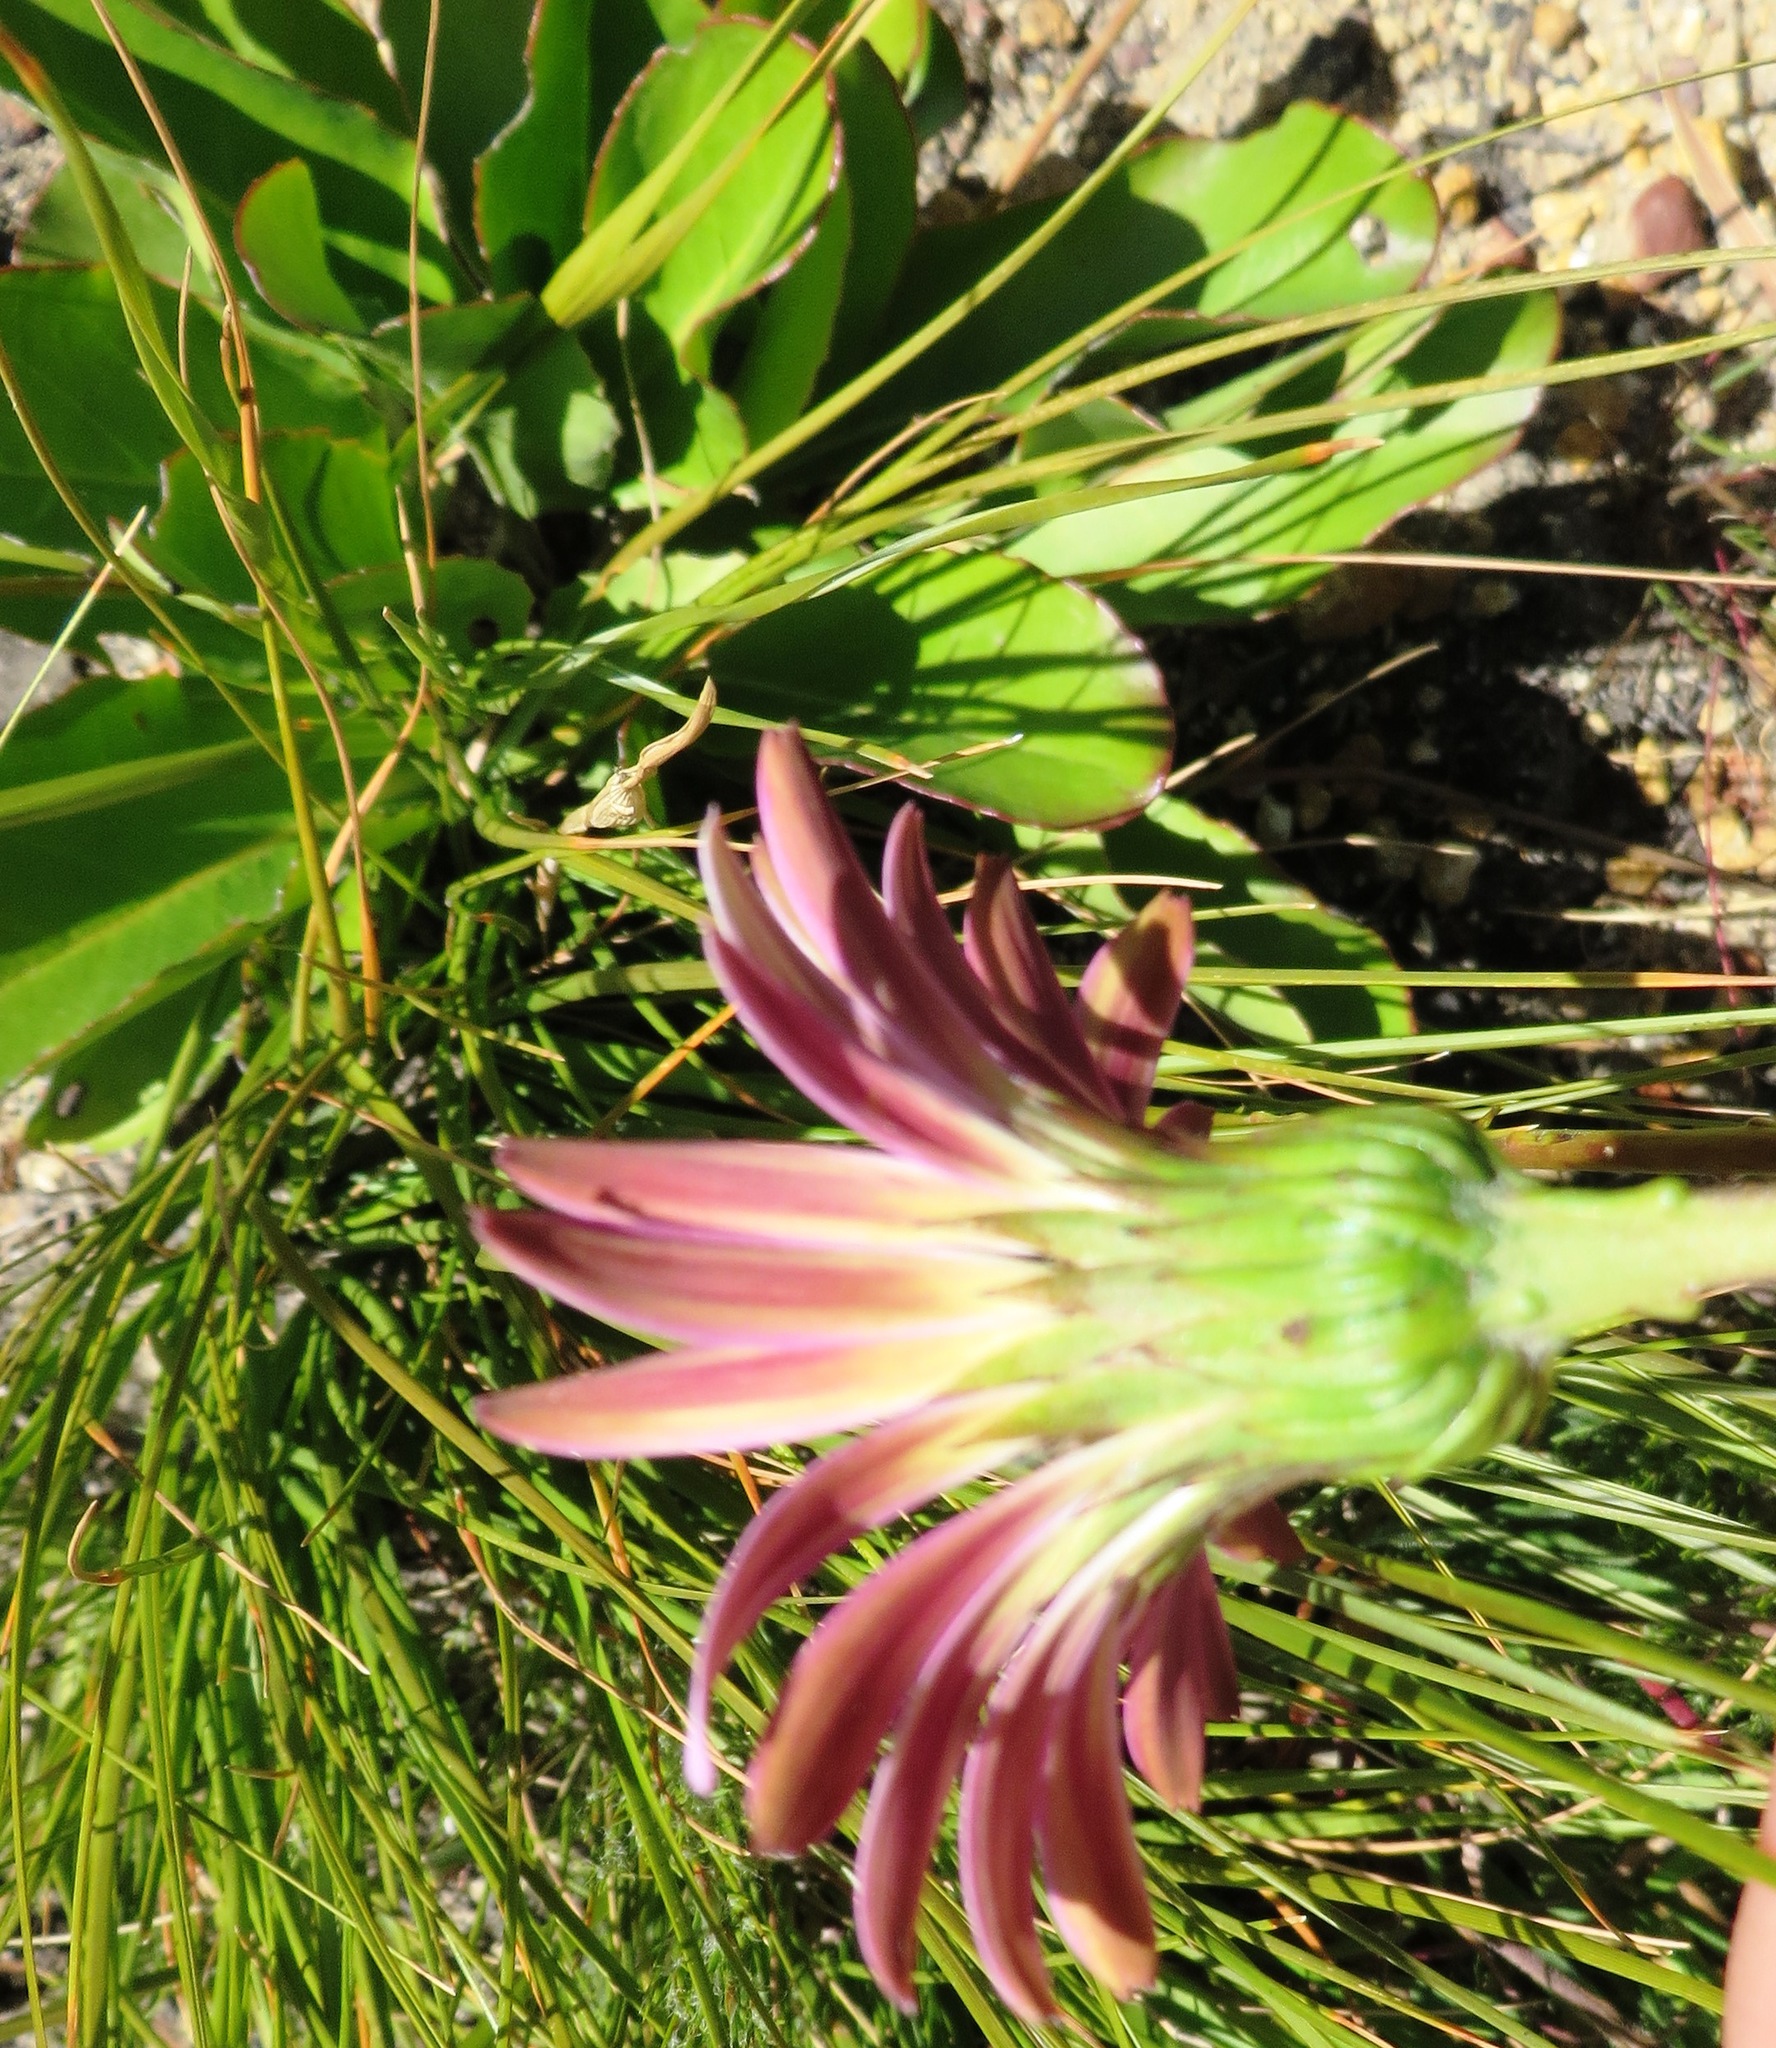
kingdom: Plantae
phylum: Tracheophyta
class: Magnoliopsida
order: Asterales
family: Asteraceae
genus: Gerbera
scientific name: Gerbera crocea
